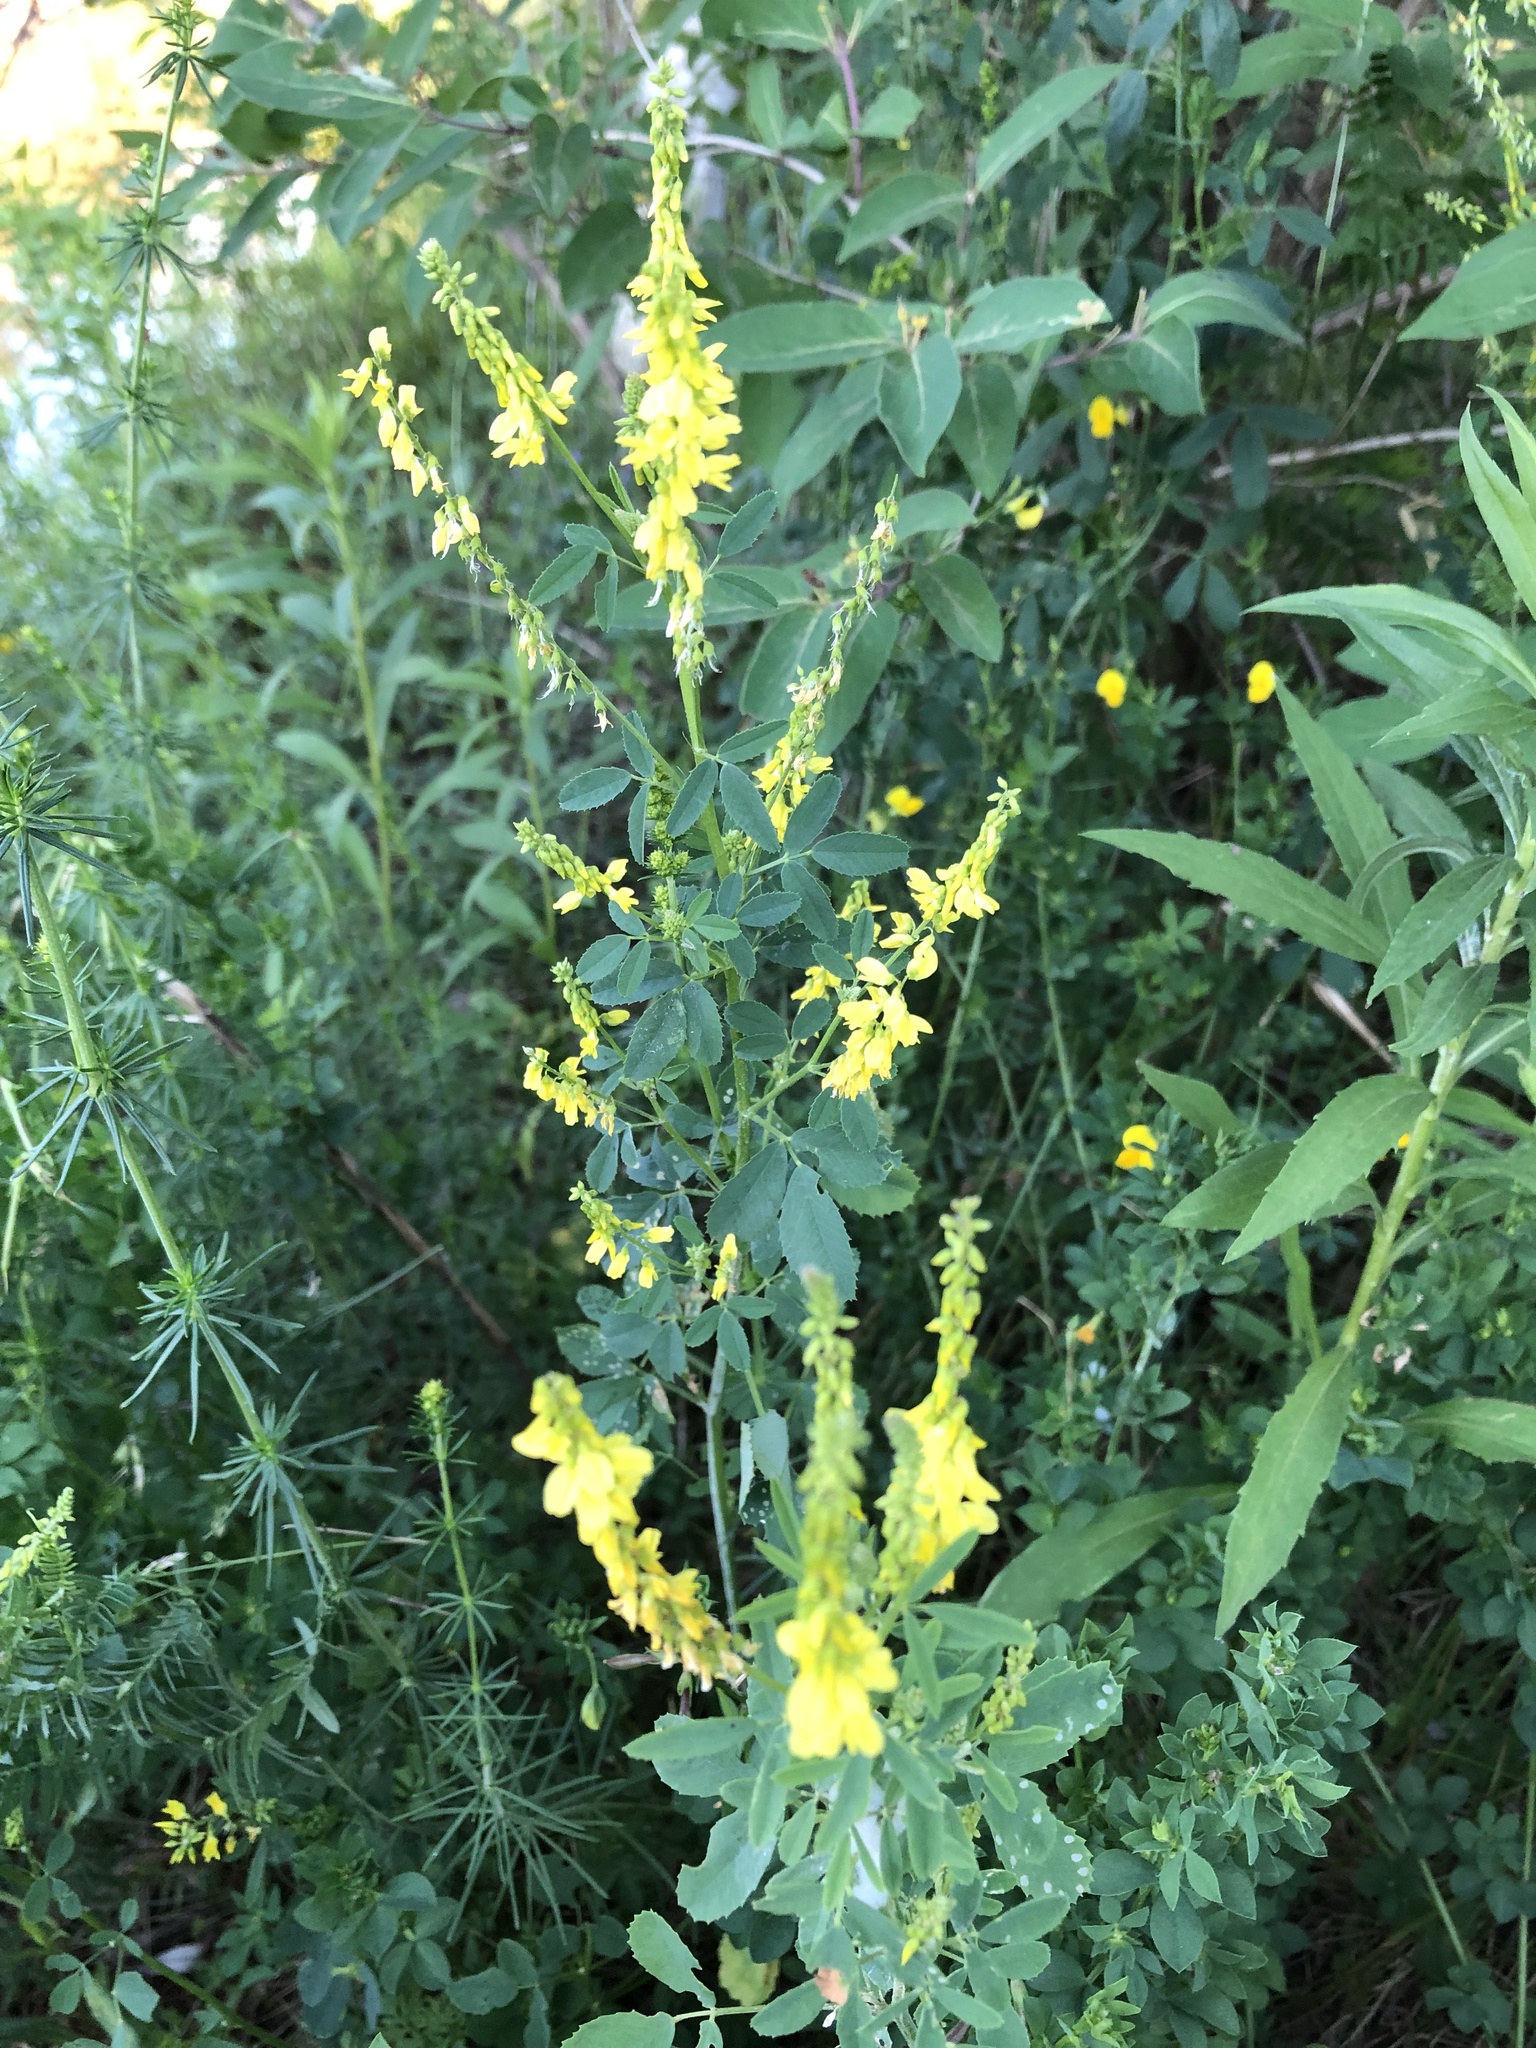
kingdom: Plantae
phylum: Tracheophyta
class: Magnoliopsida
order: Fabales
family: Fabaceae
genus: Melilotus
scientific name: Melilotus officinalis
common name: Sweetclover
